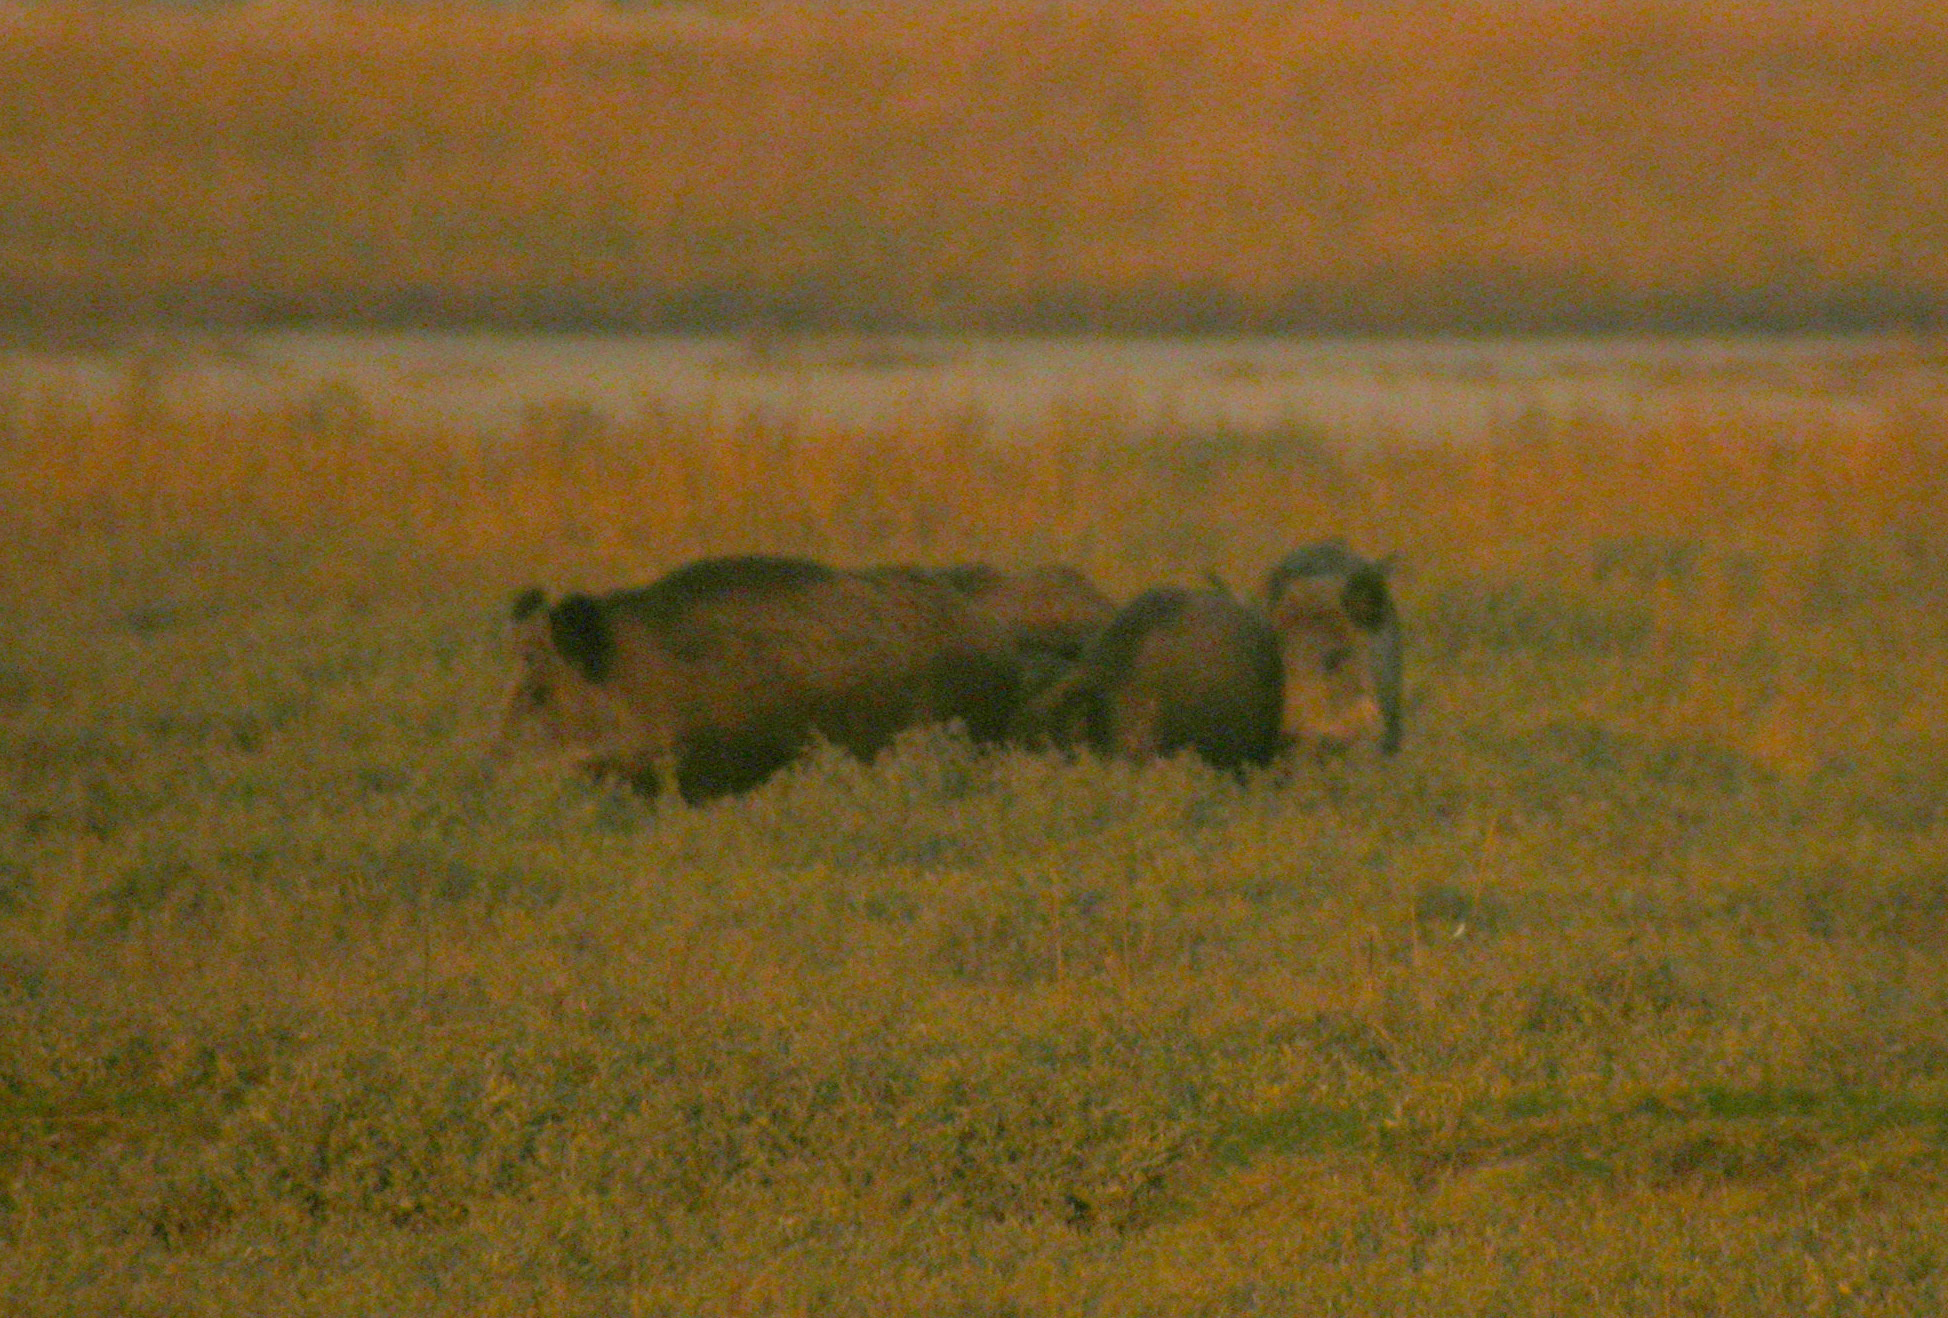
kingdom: Animalia
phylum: Chordata
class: Mammalia
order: Artiodactyla
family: Suidae
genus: Sus
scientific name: Sus scrofa
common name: Wild boar
